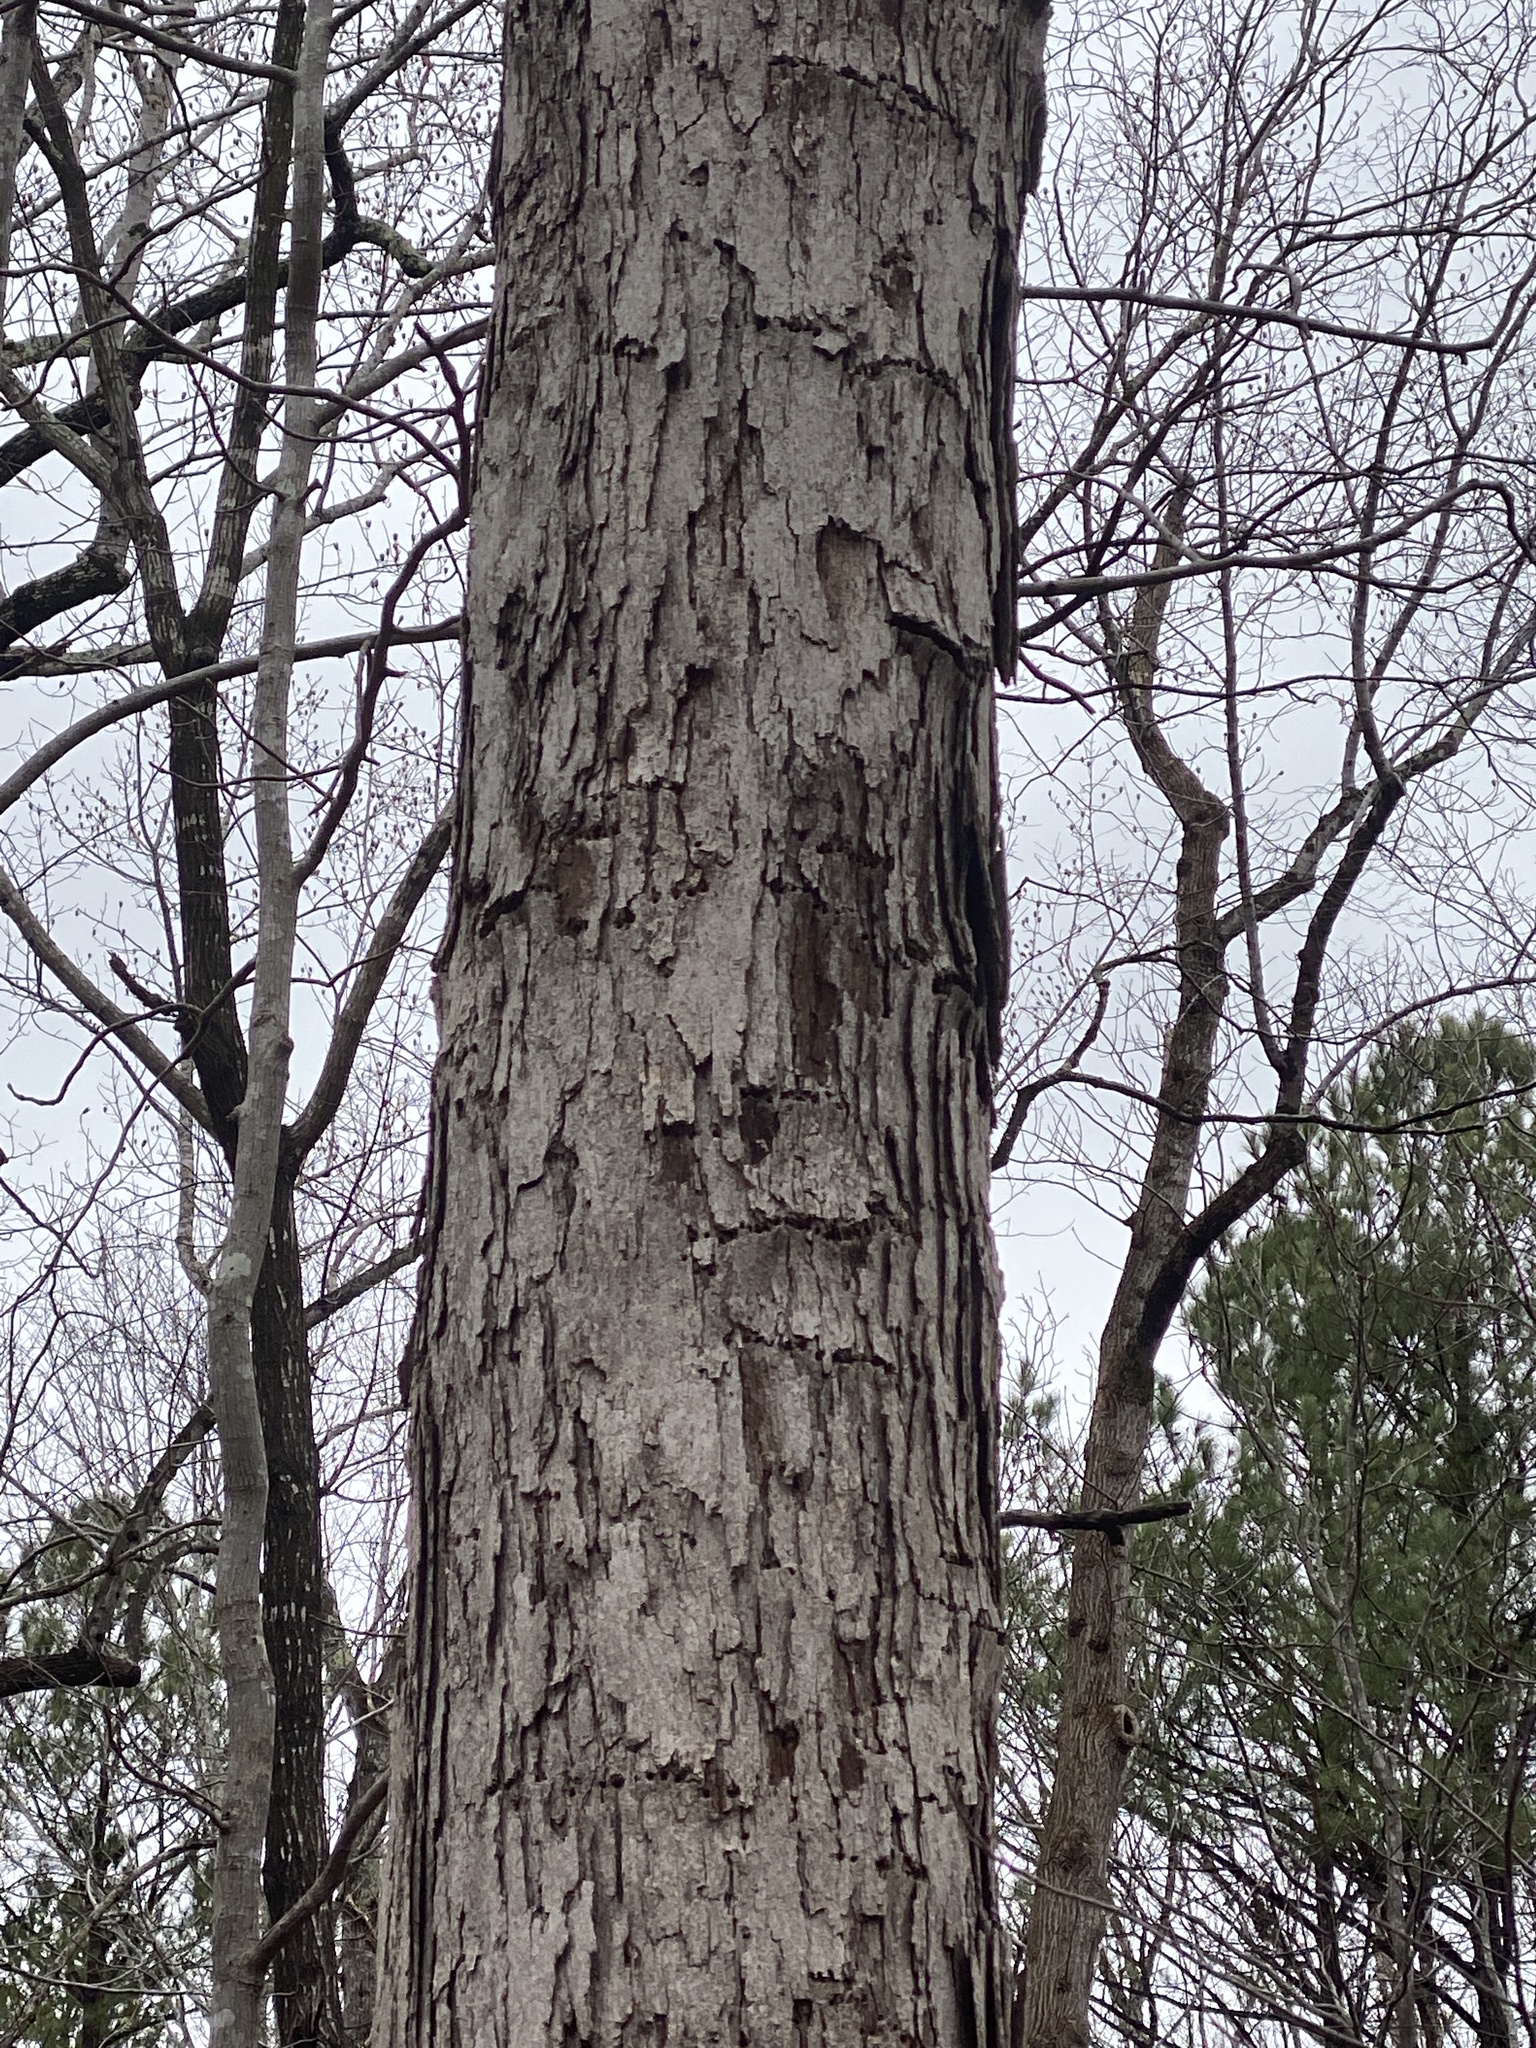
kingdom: Plantae
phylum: Tracheophyta
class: Magnoliopsida
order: Fagales
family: Fagaceae
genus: Quercus
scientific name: Quercus alba
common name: White oak
